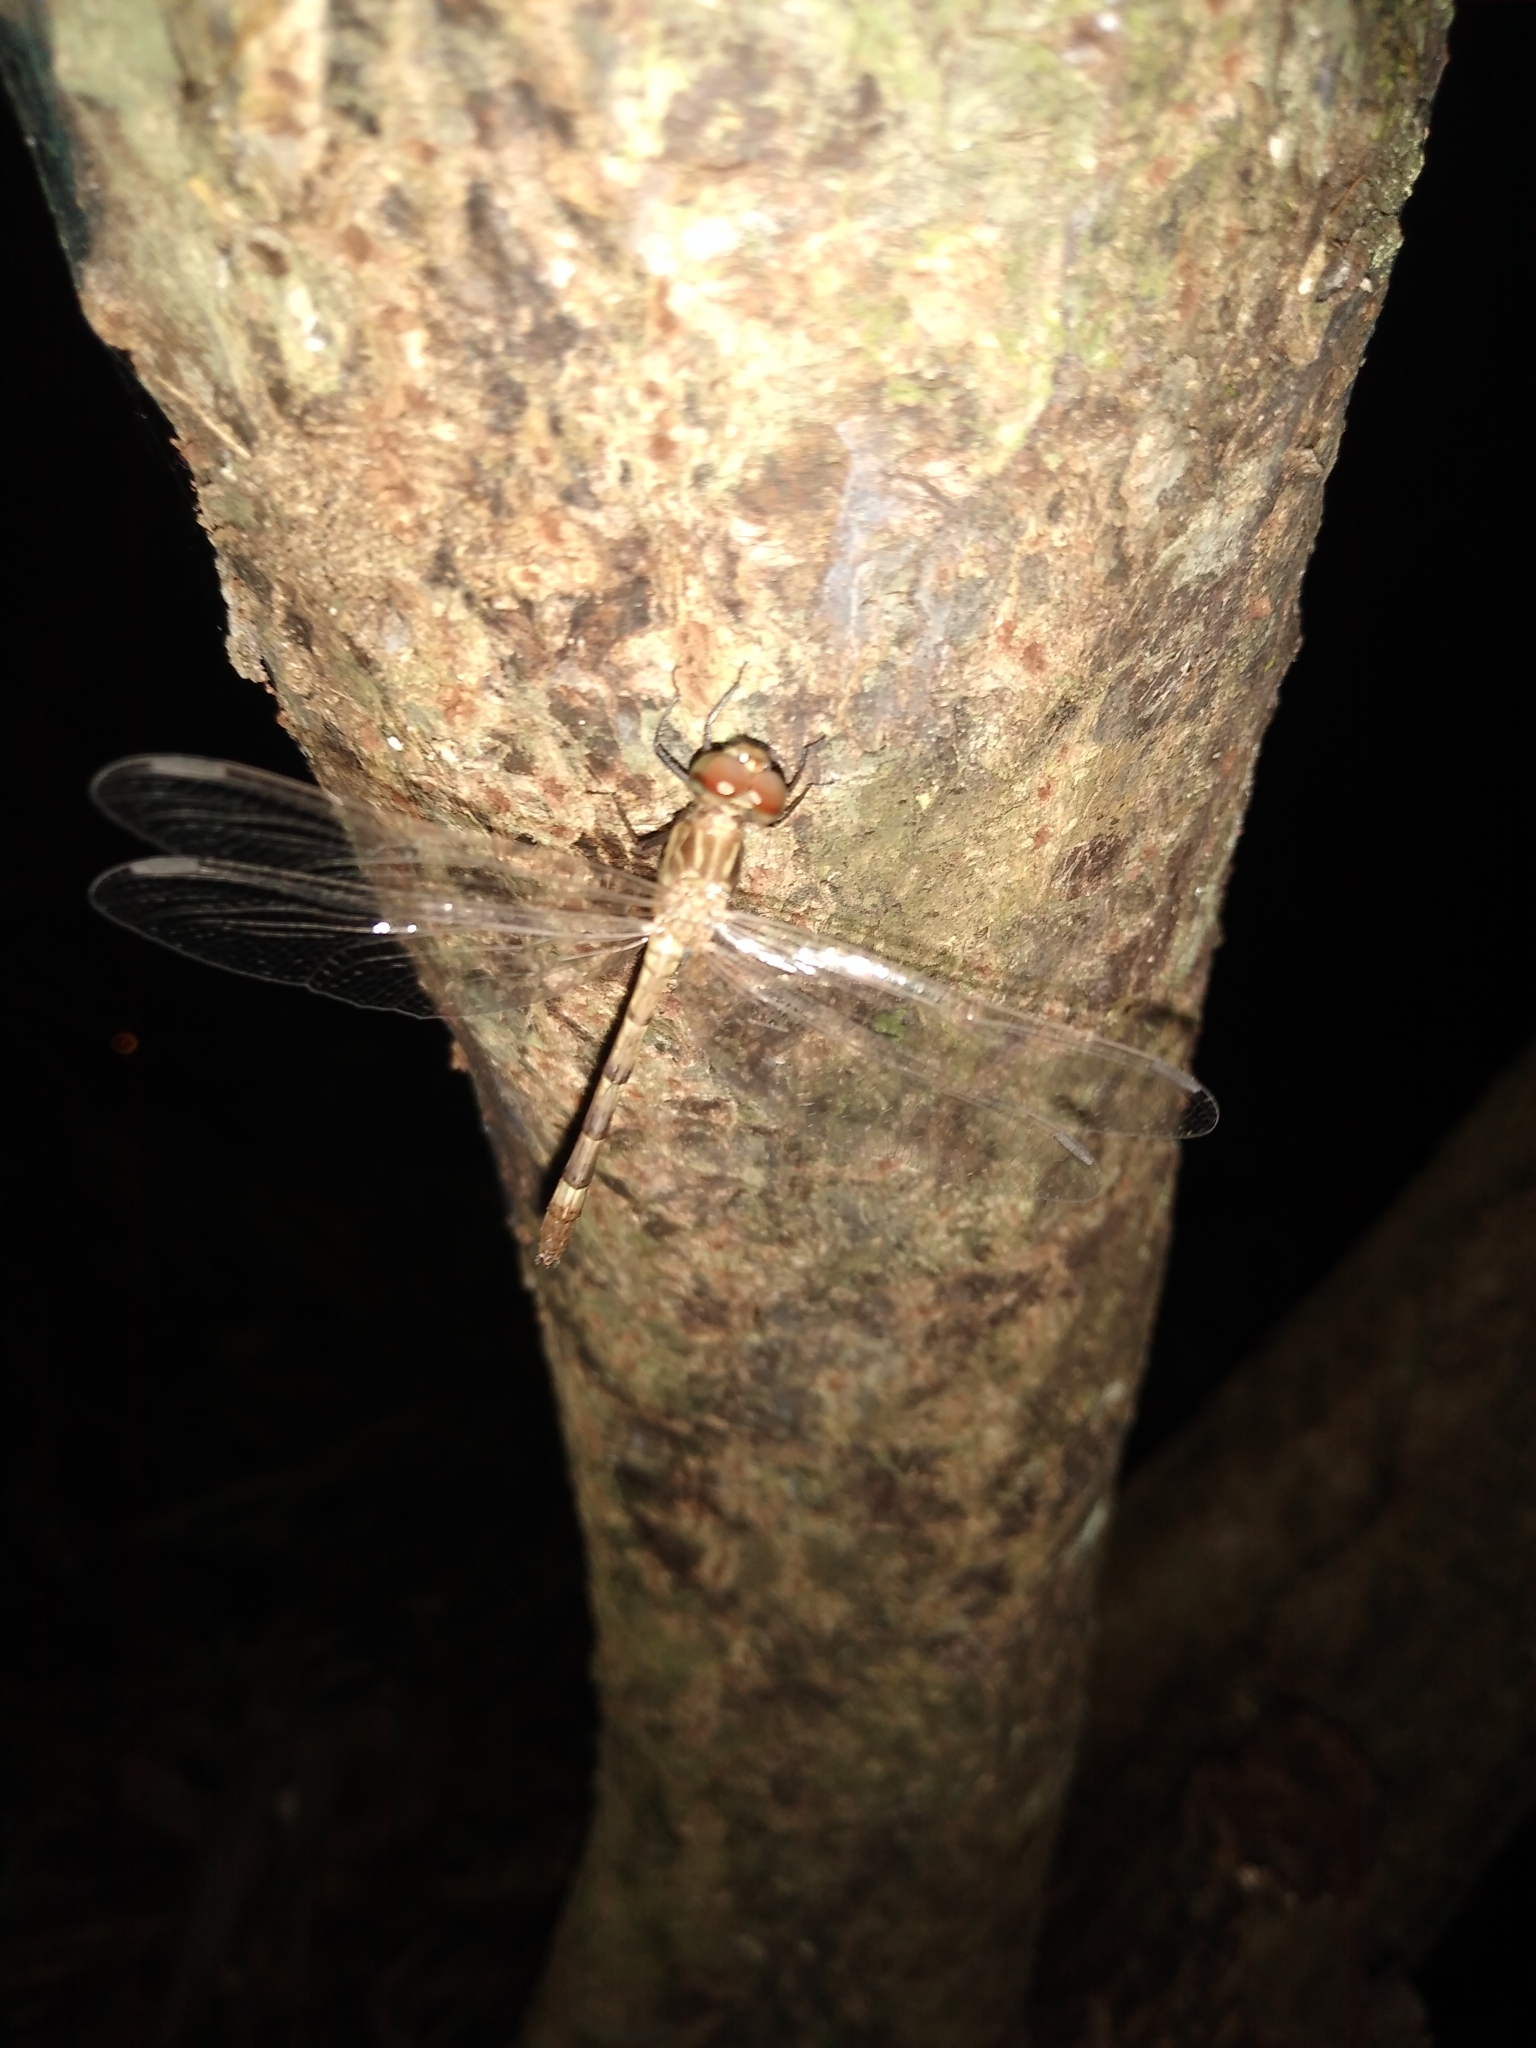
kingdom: Animalia
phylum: Arthropoda
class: Insecta
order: Odonata
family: Libellulidae
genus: Dythemis
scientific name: Dythemis sterilis
